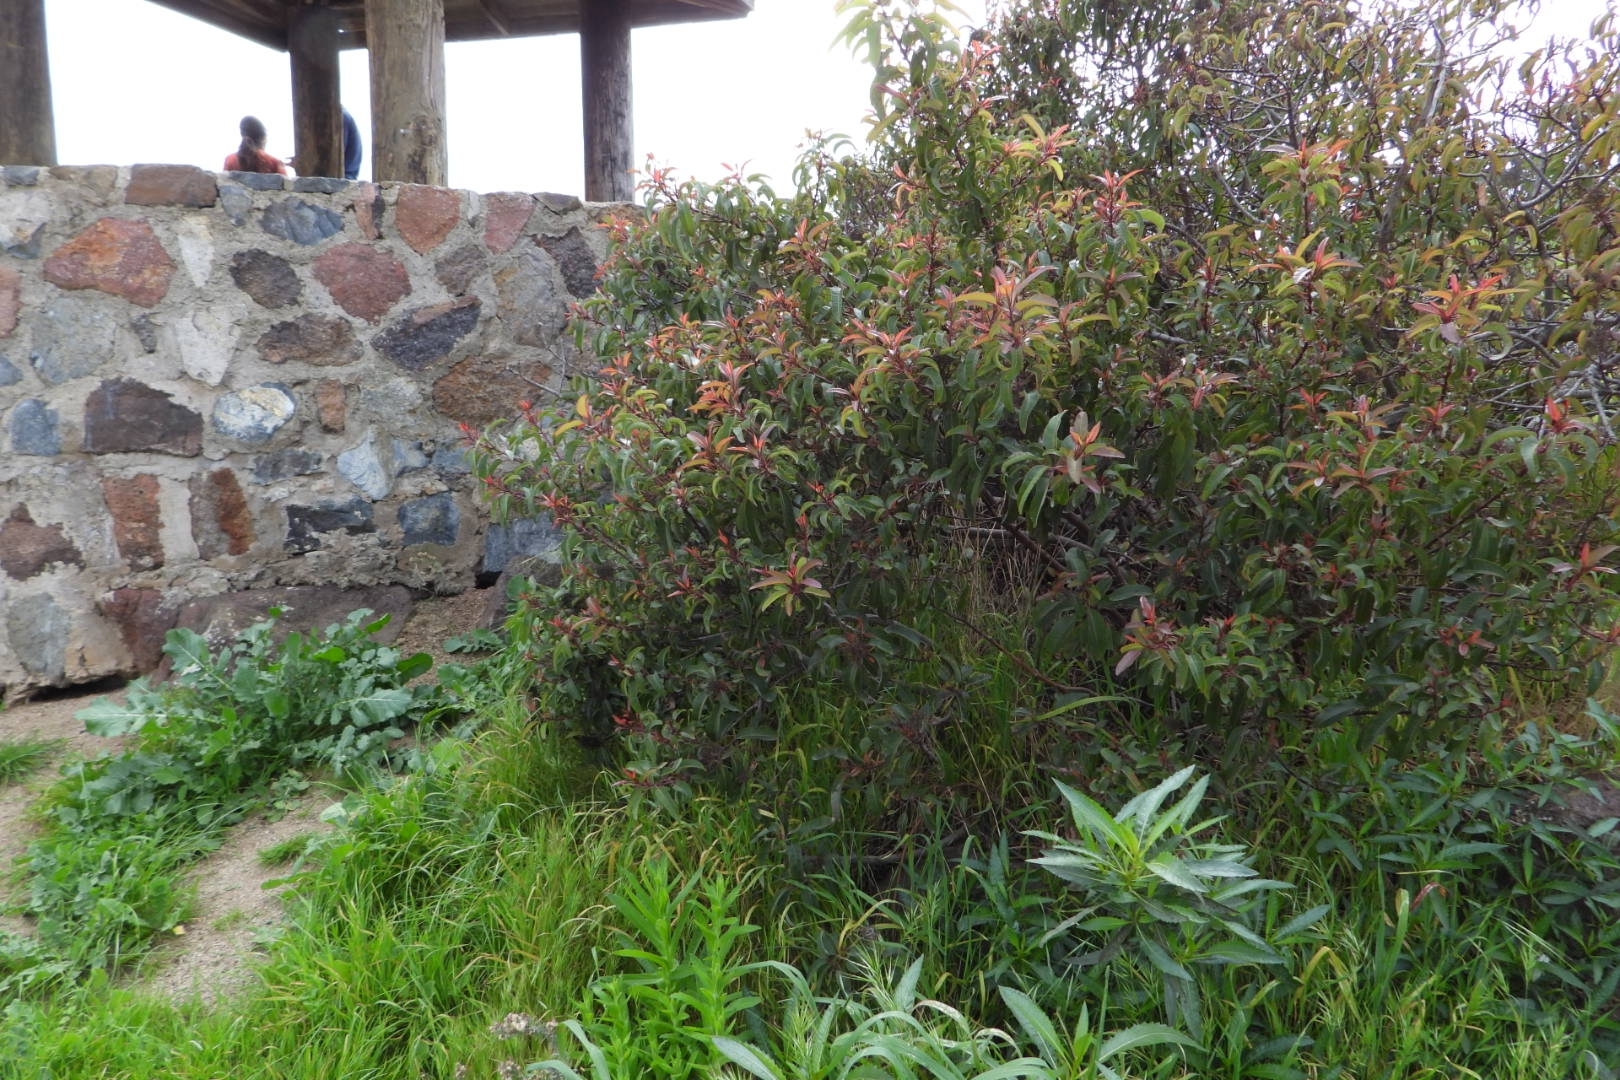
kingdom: Plantae
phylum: Tracheophyta
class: Magnoliopsida
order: Sapindales
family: Anacardiaceae
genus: Malosma
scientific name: Malosma laurina
